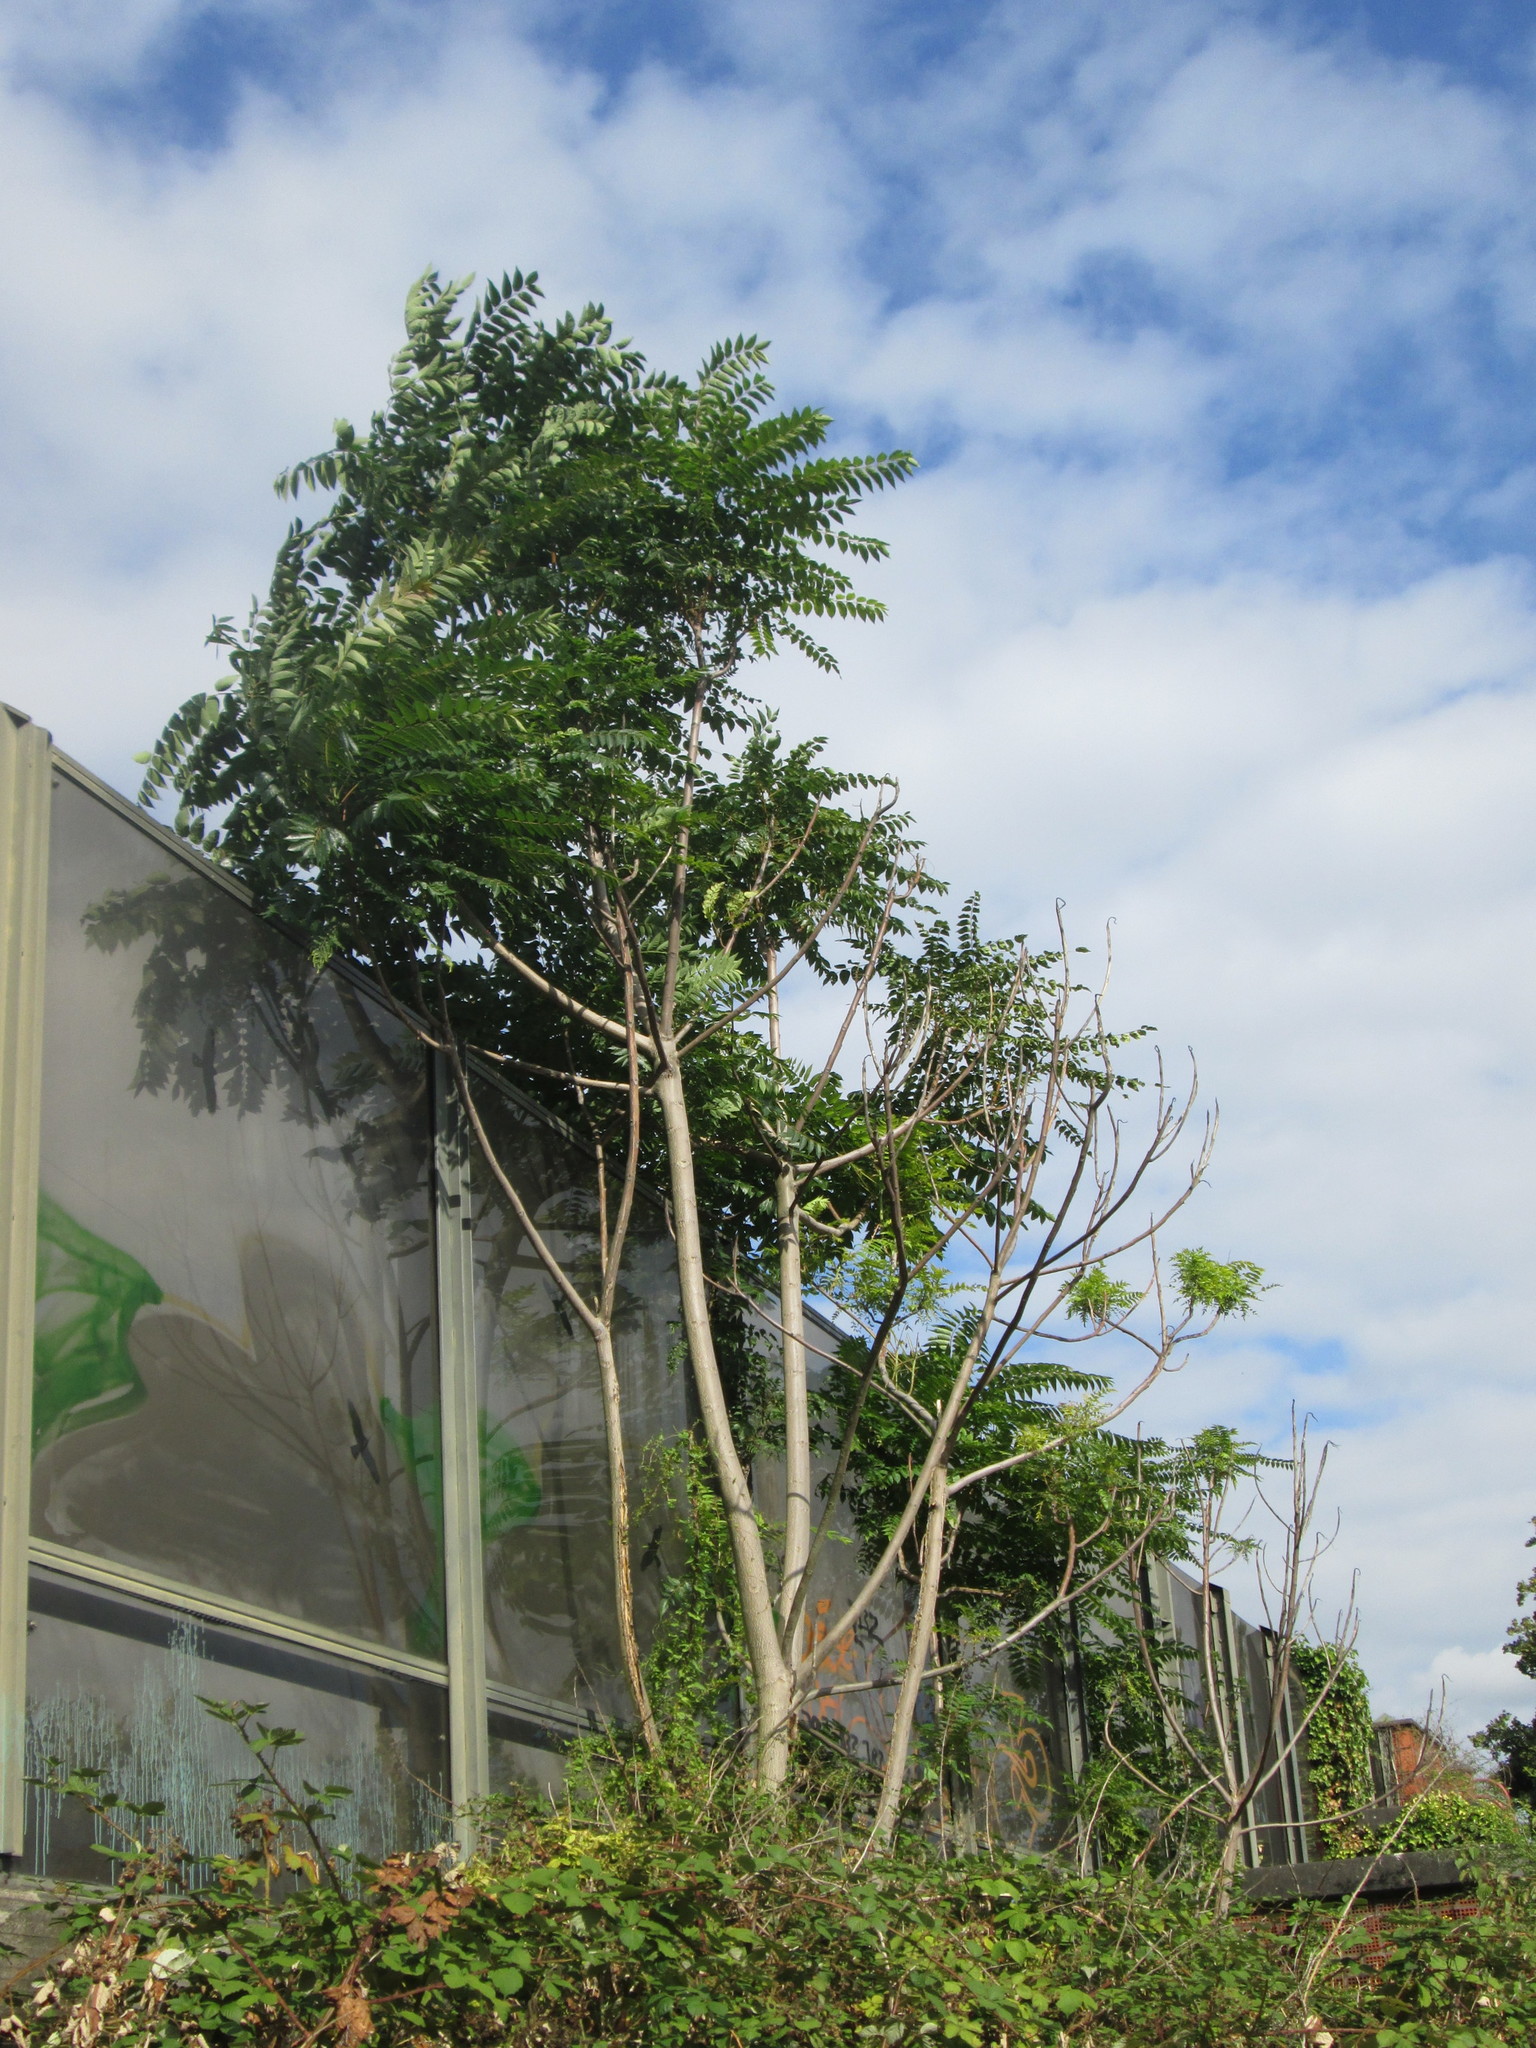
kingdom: Plantae
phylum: Tracheophyta
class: Magnoliopsida
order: Sapindales
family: Simaroubaceae
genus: Ailanthus
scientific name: Ailanthus altissima
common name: Tree-of-heaven
